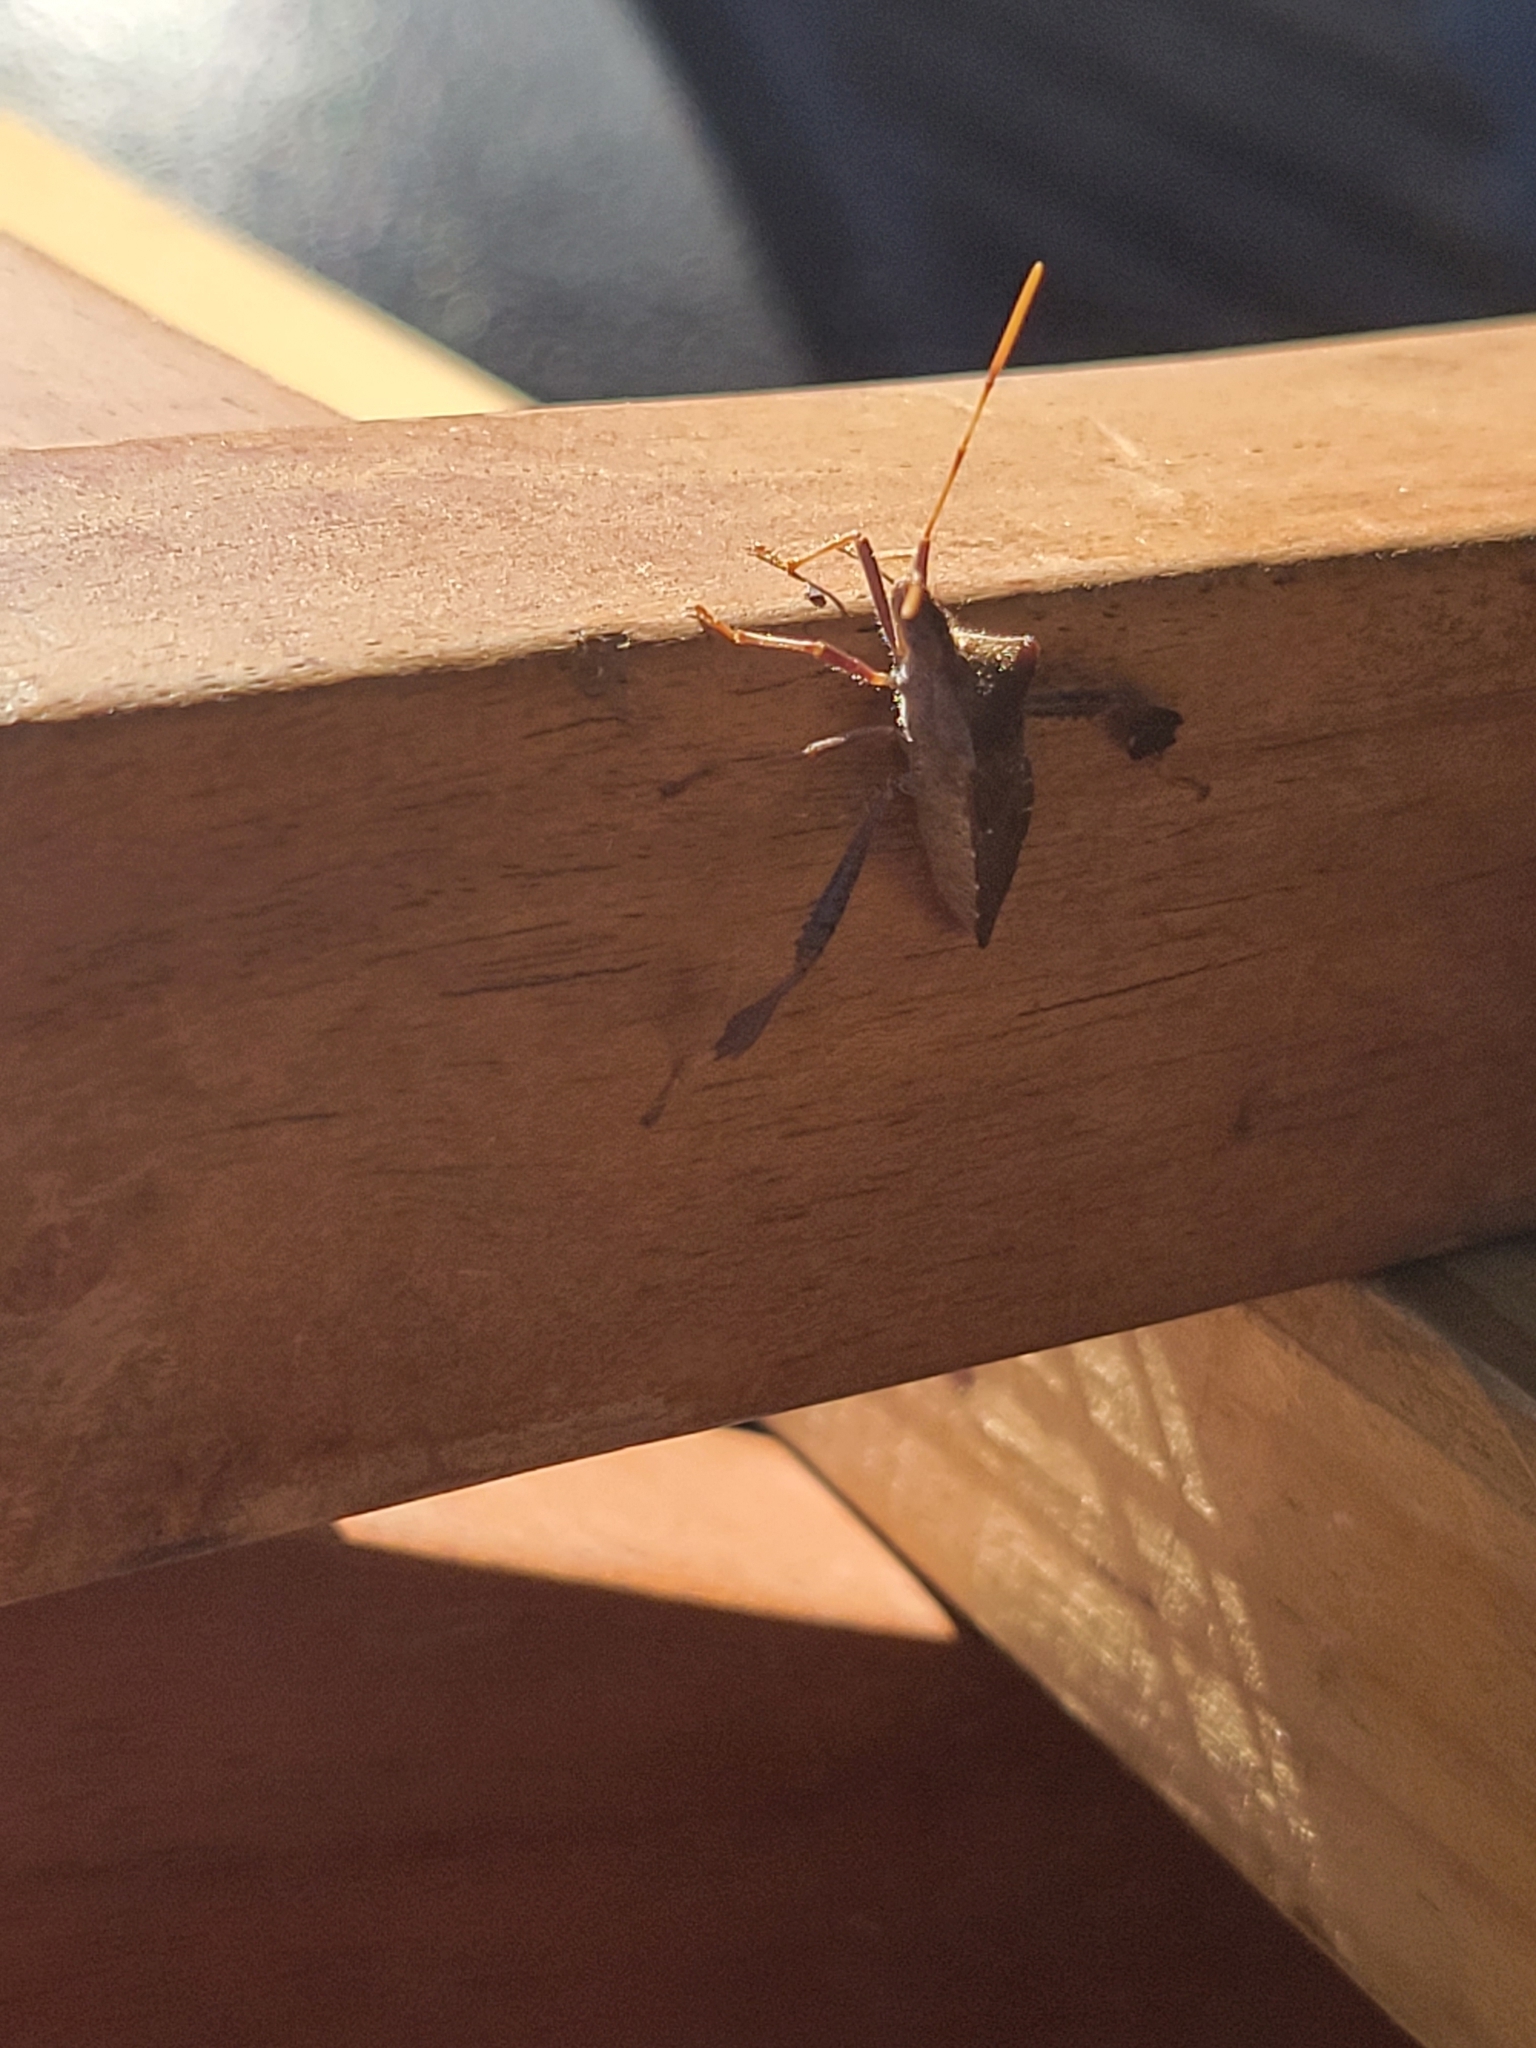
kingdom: Animalia
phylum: Arthropoda
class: Insecta
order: Hemiptera
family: Coreidae
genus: Leptoglossus
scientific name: Leptoglossus oppositus
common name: Northern leaf-footed bug
